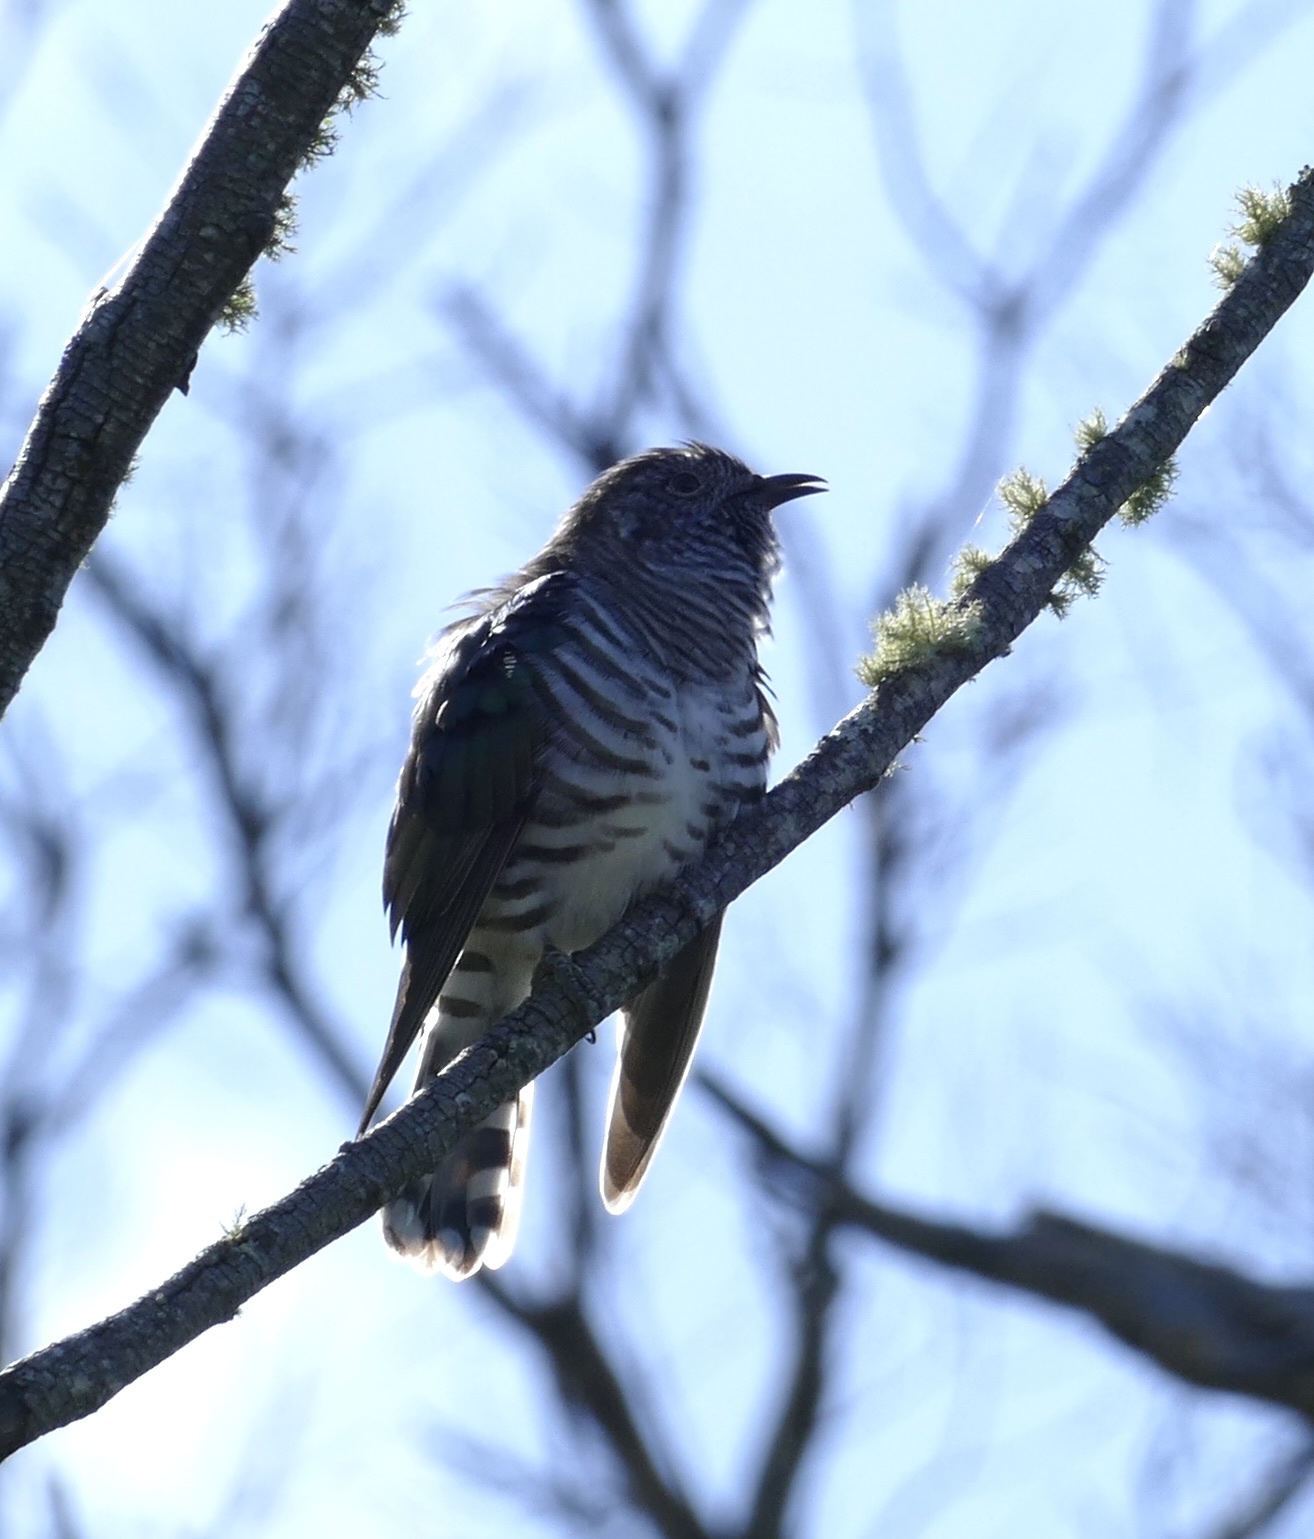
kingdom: Animalia
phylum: Chordata
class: Aves
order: Cuculiformes
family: Cuculidae
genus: Chrysococcyx
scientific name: Chrysococcyx lucidus
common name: Shining bronze cuckoo
